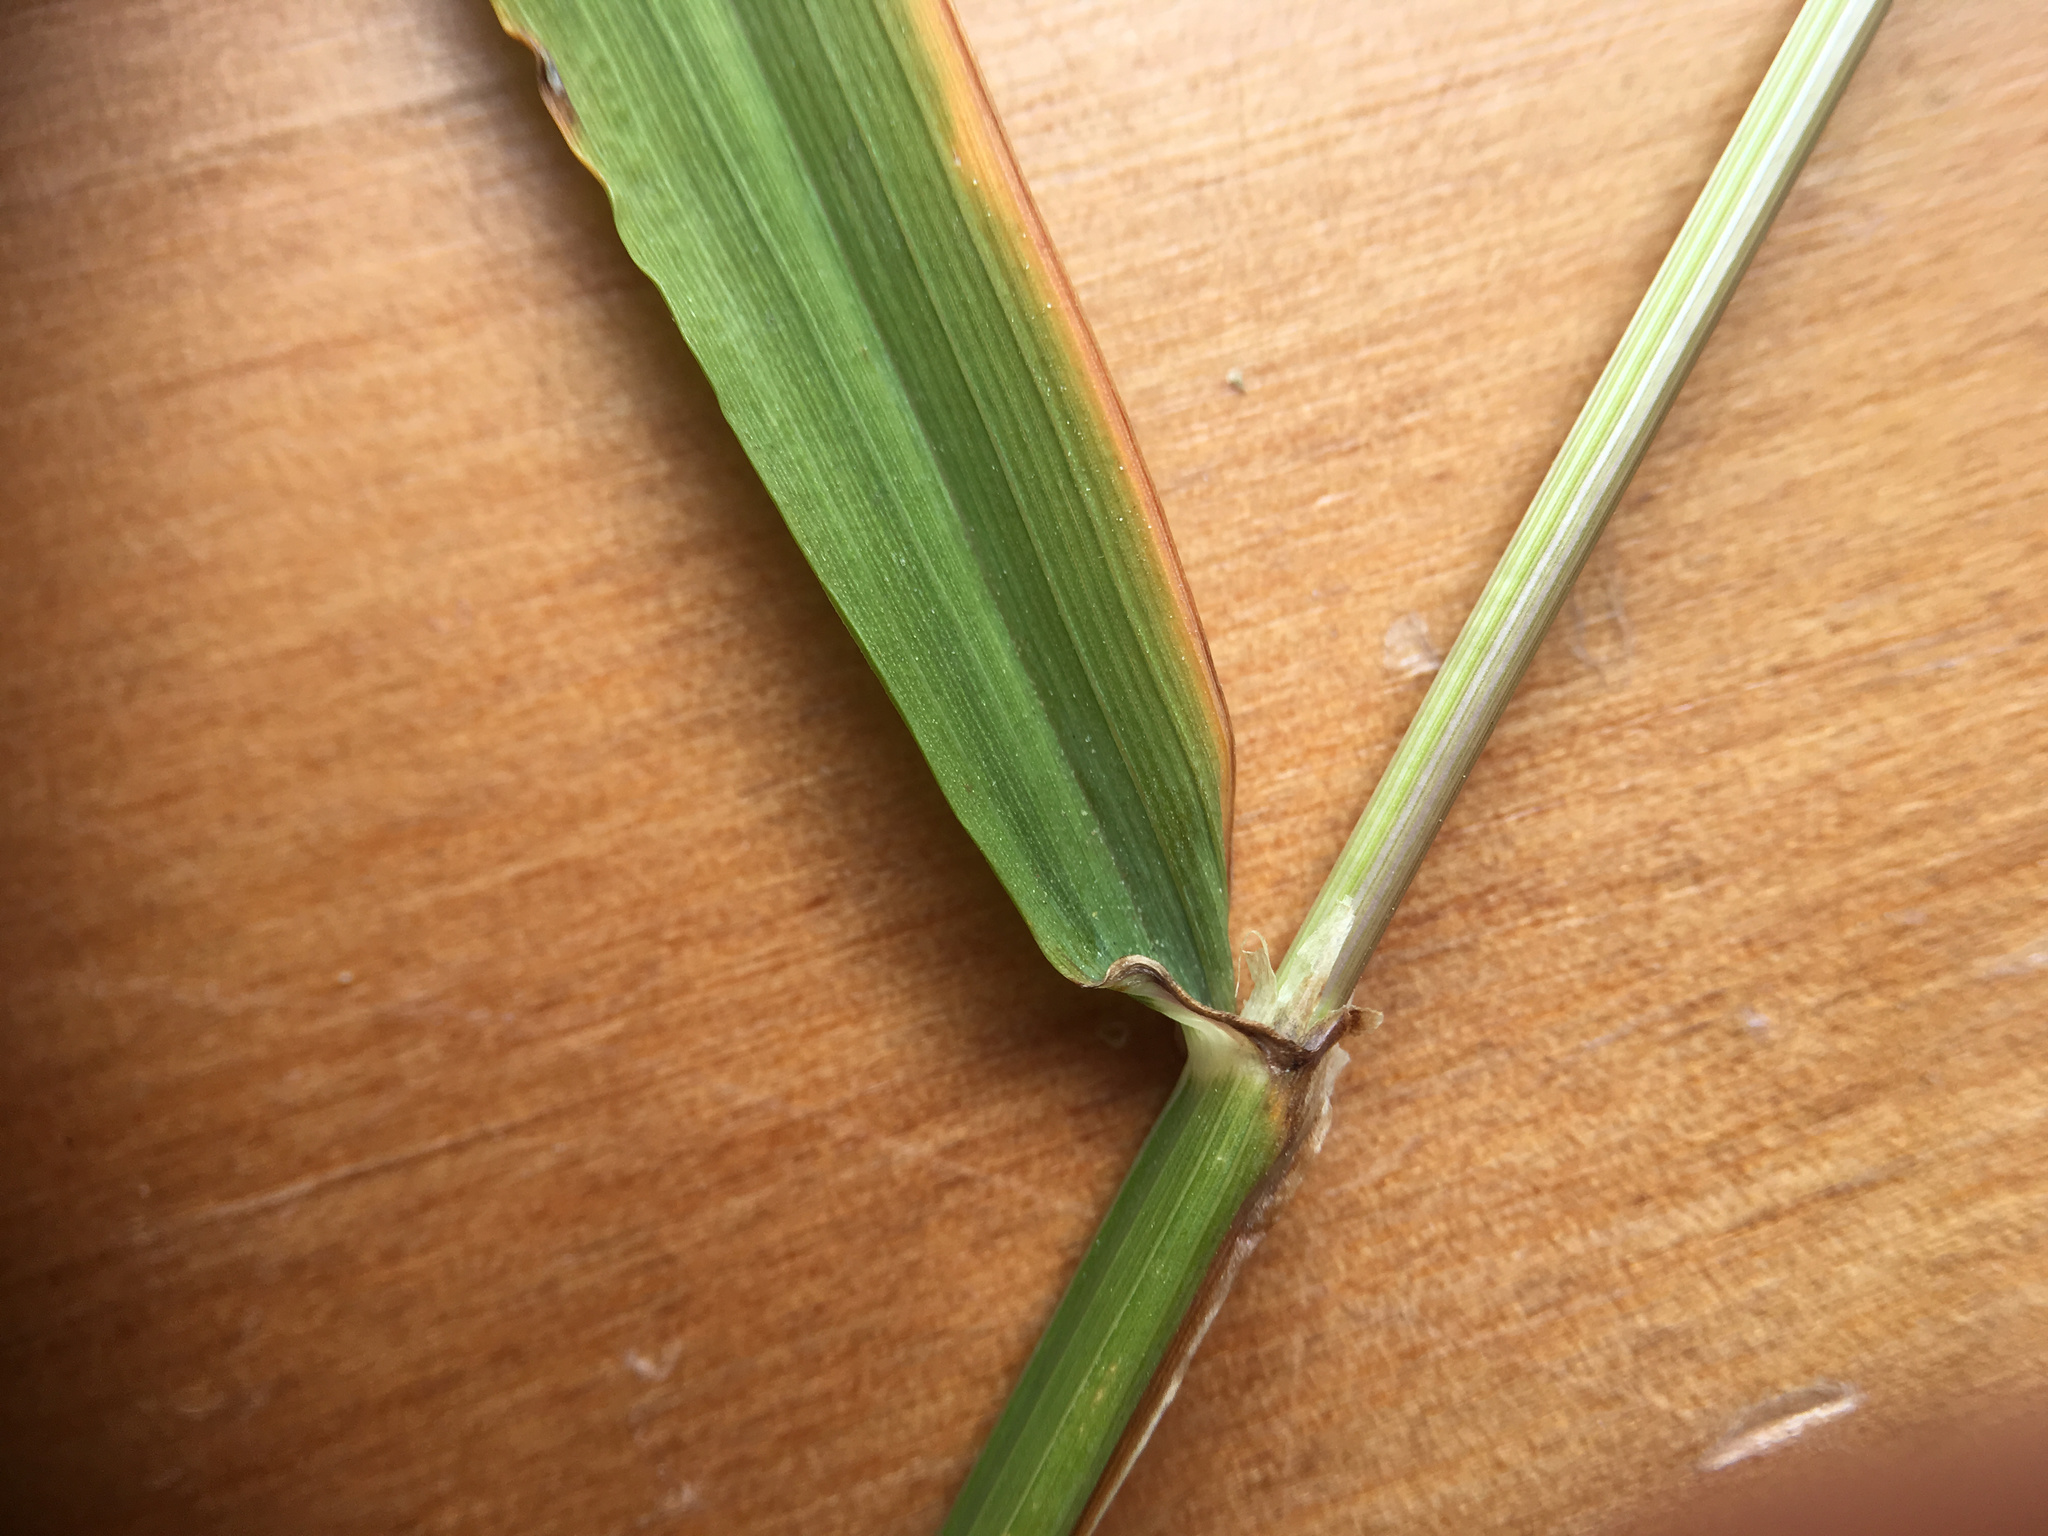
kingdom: Plantae
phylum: Tracheophyta
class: Liliopsida
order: Poales
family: Poaceae
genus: Ehrharta
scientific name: Ehrharta erecta
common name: Panic veldtgrass
